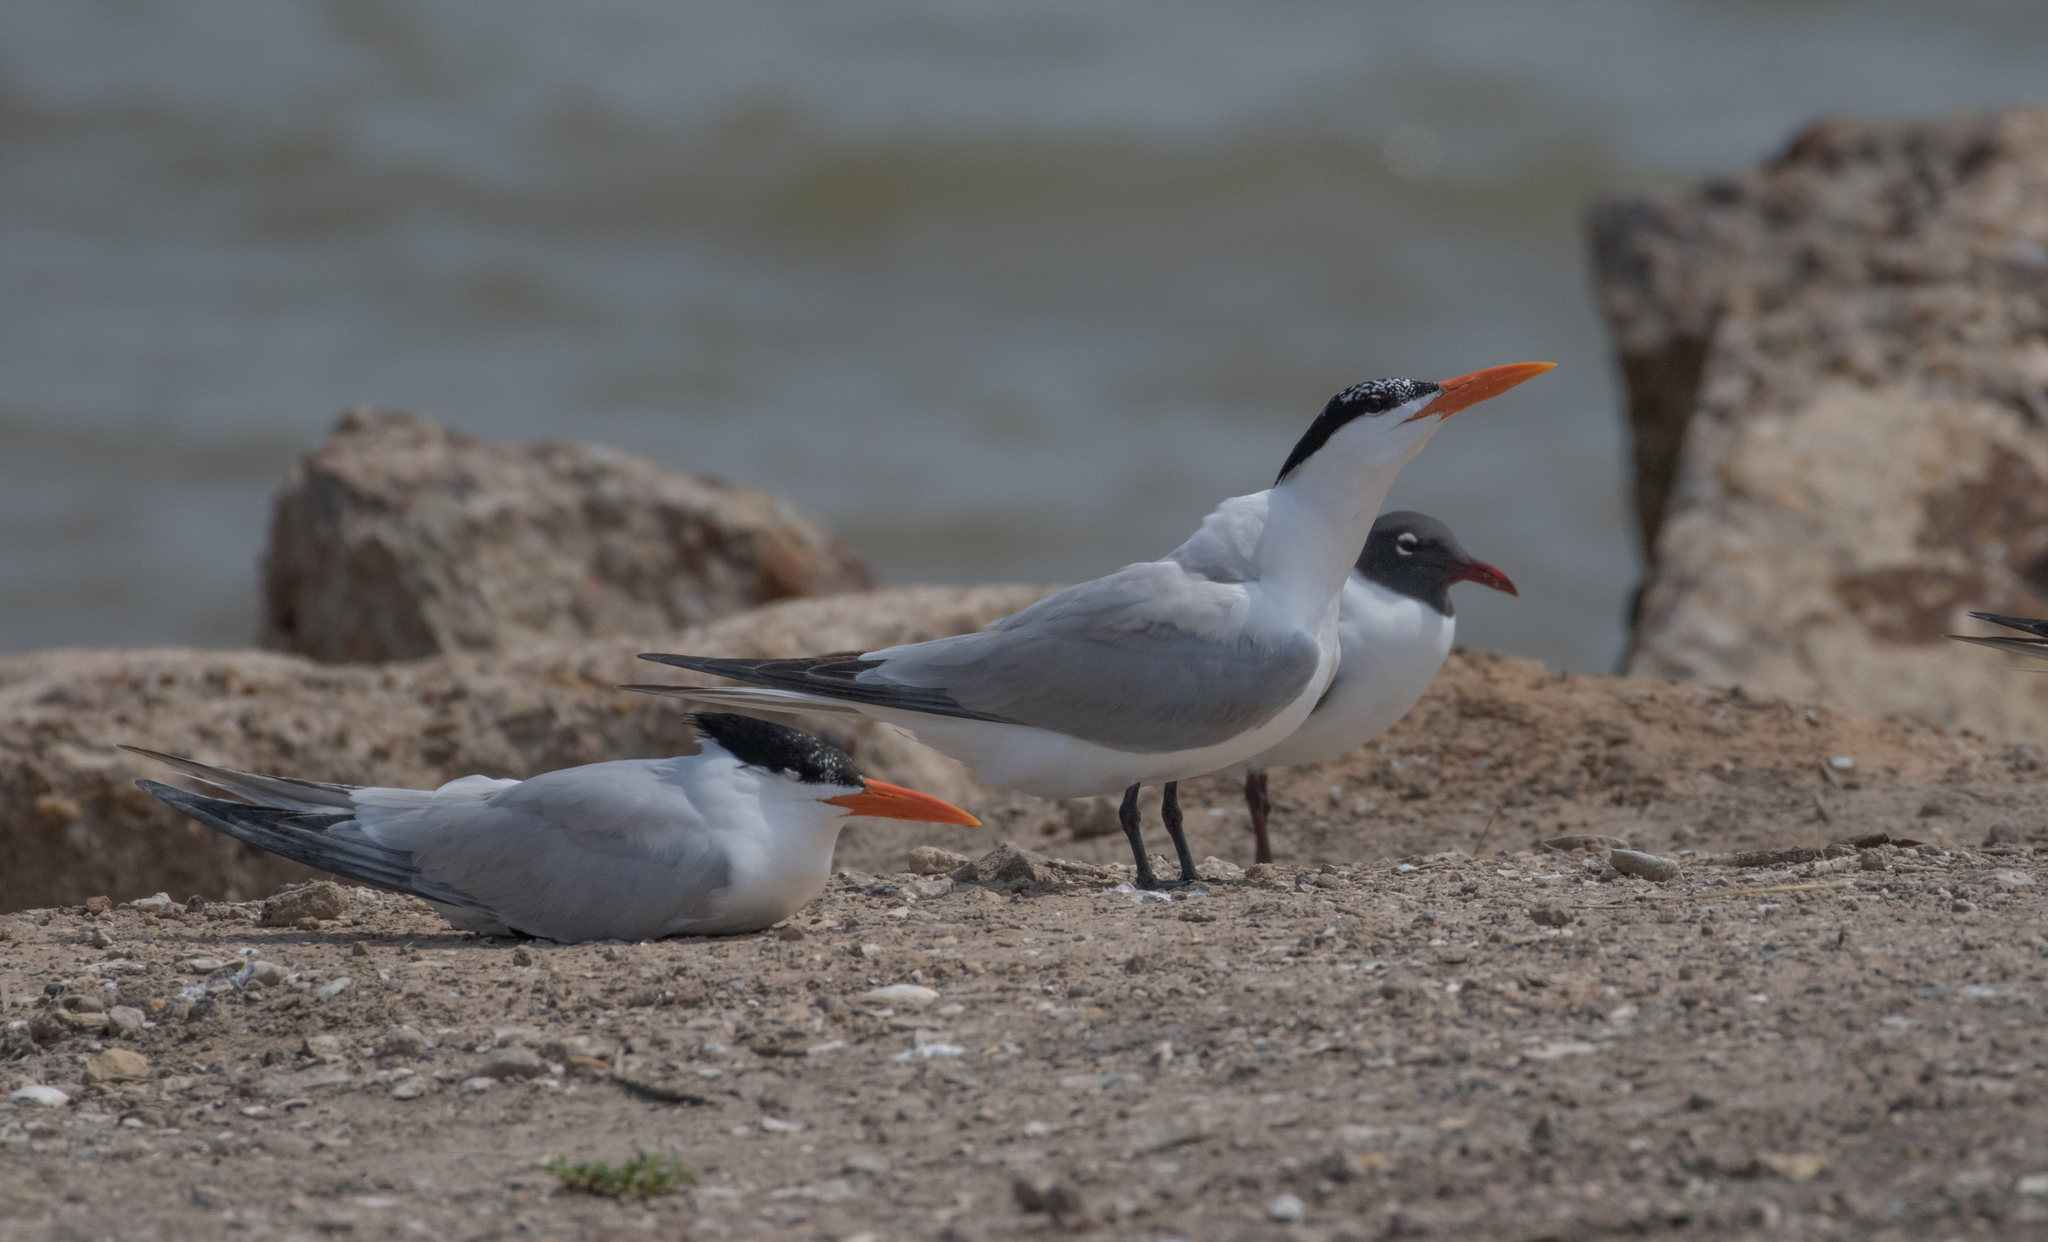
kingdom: Animalia
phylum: Chordata
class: Aves
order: Charadriiformes
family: Laridae
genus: Thalasseus
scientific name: Thalasseus maximus
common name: Royal tern
